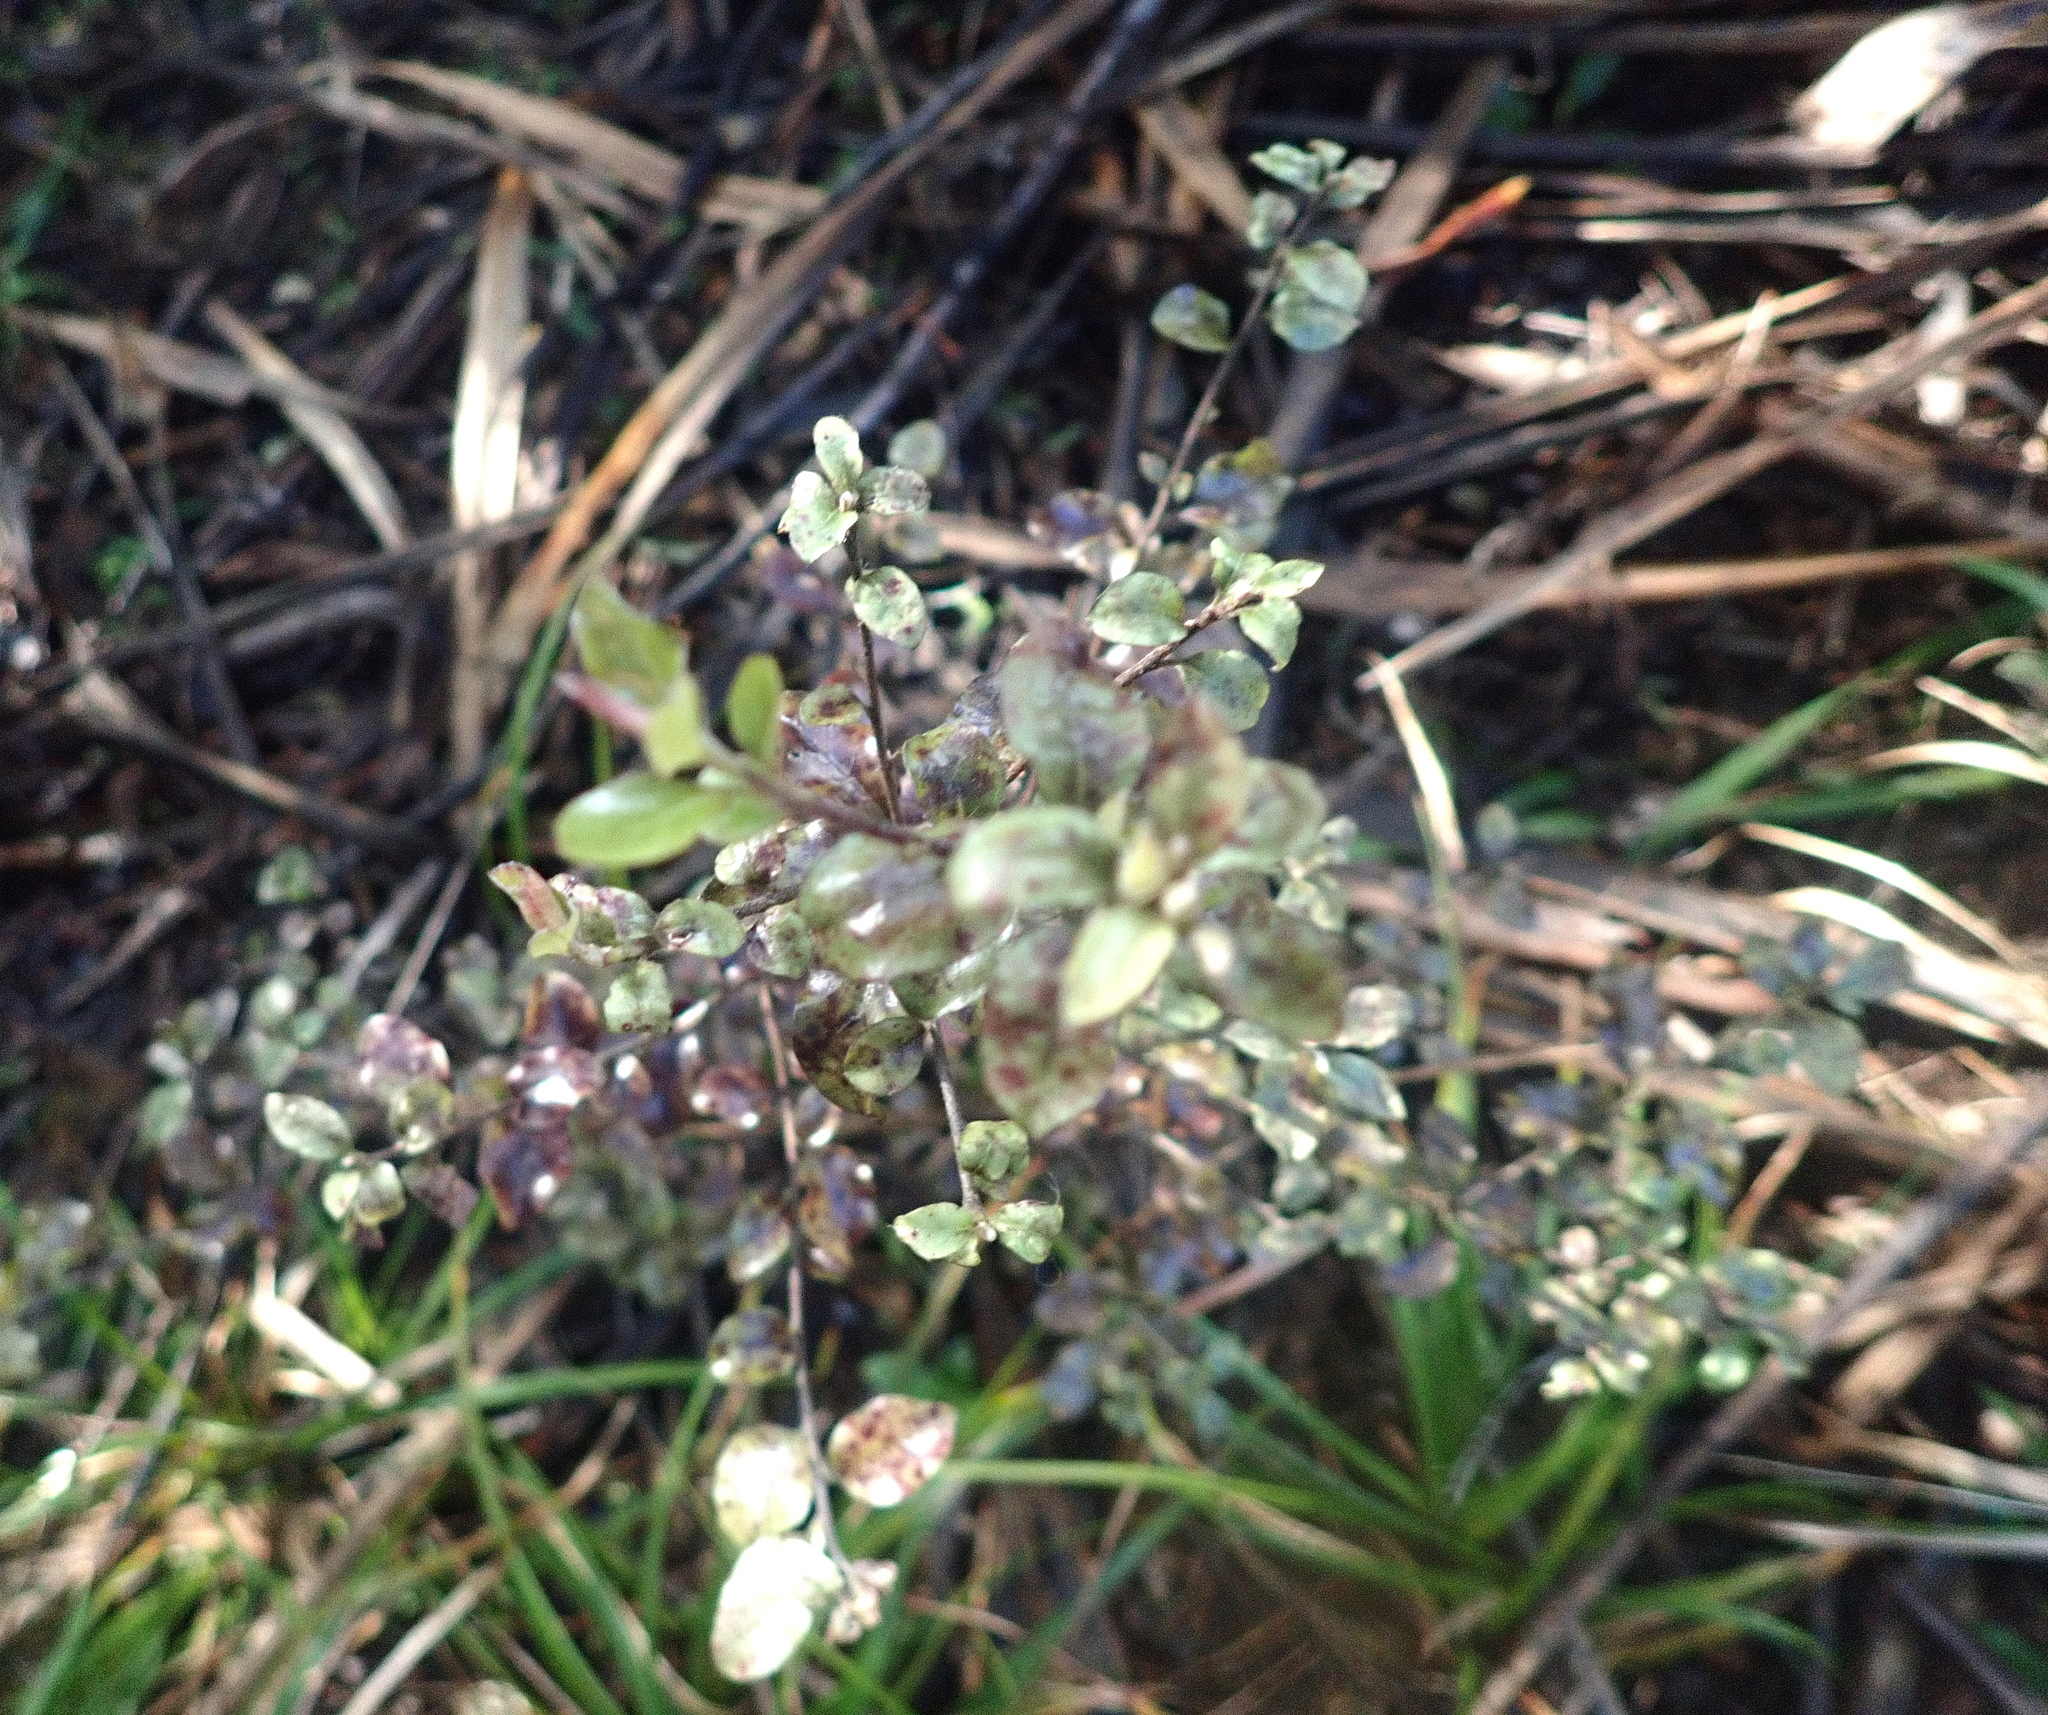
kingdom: Plantae
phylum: Tracheophyta
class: Magnoliopsida
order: Apiales
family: Pittosporaceae
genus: Pittosporum
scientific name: Pittosporum tenuifolium
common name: Kohuhu
